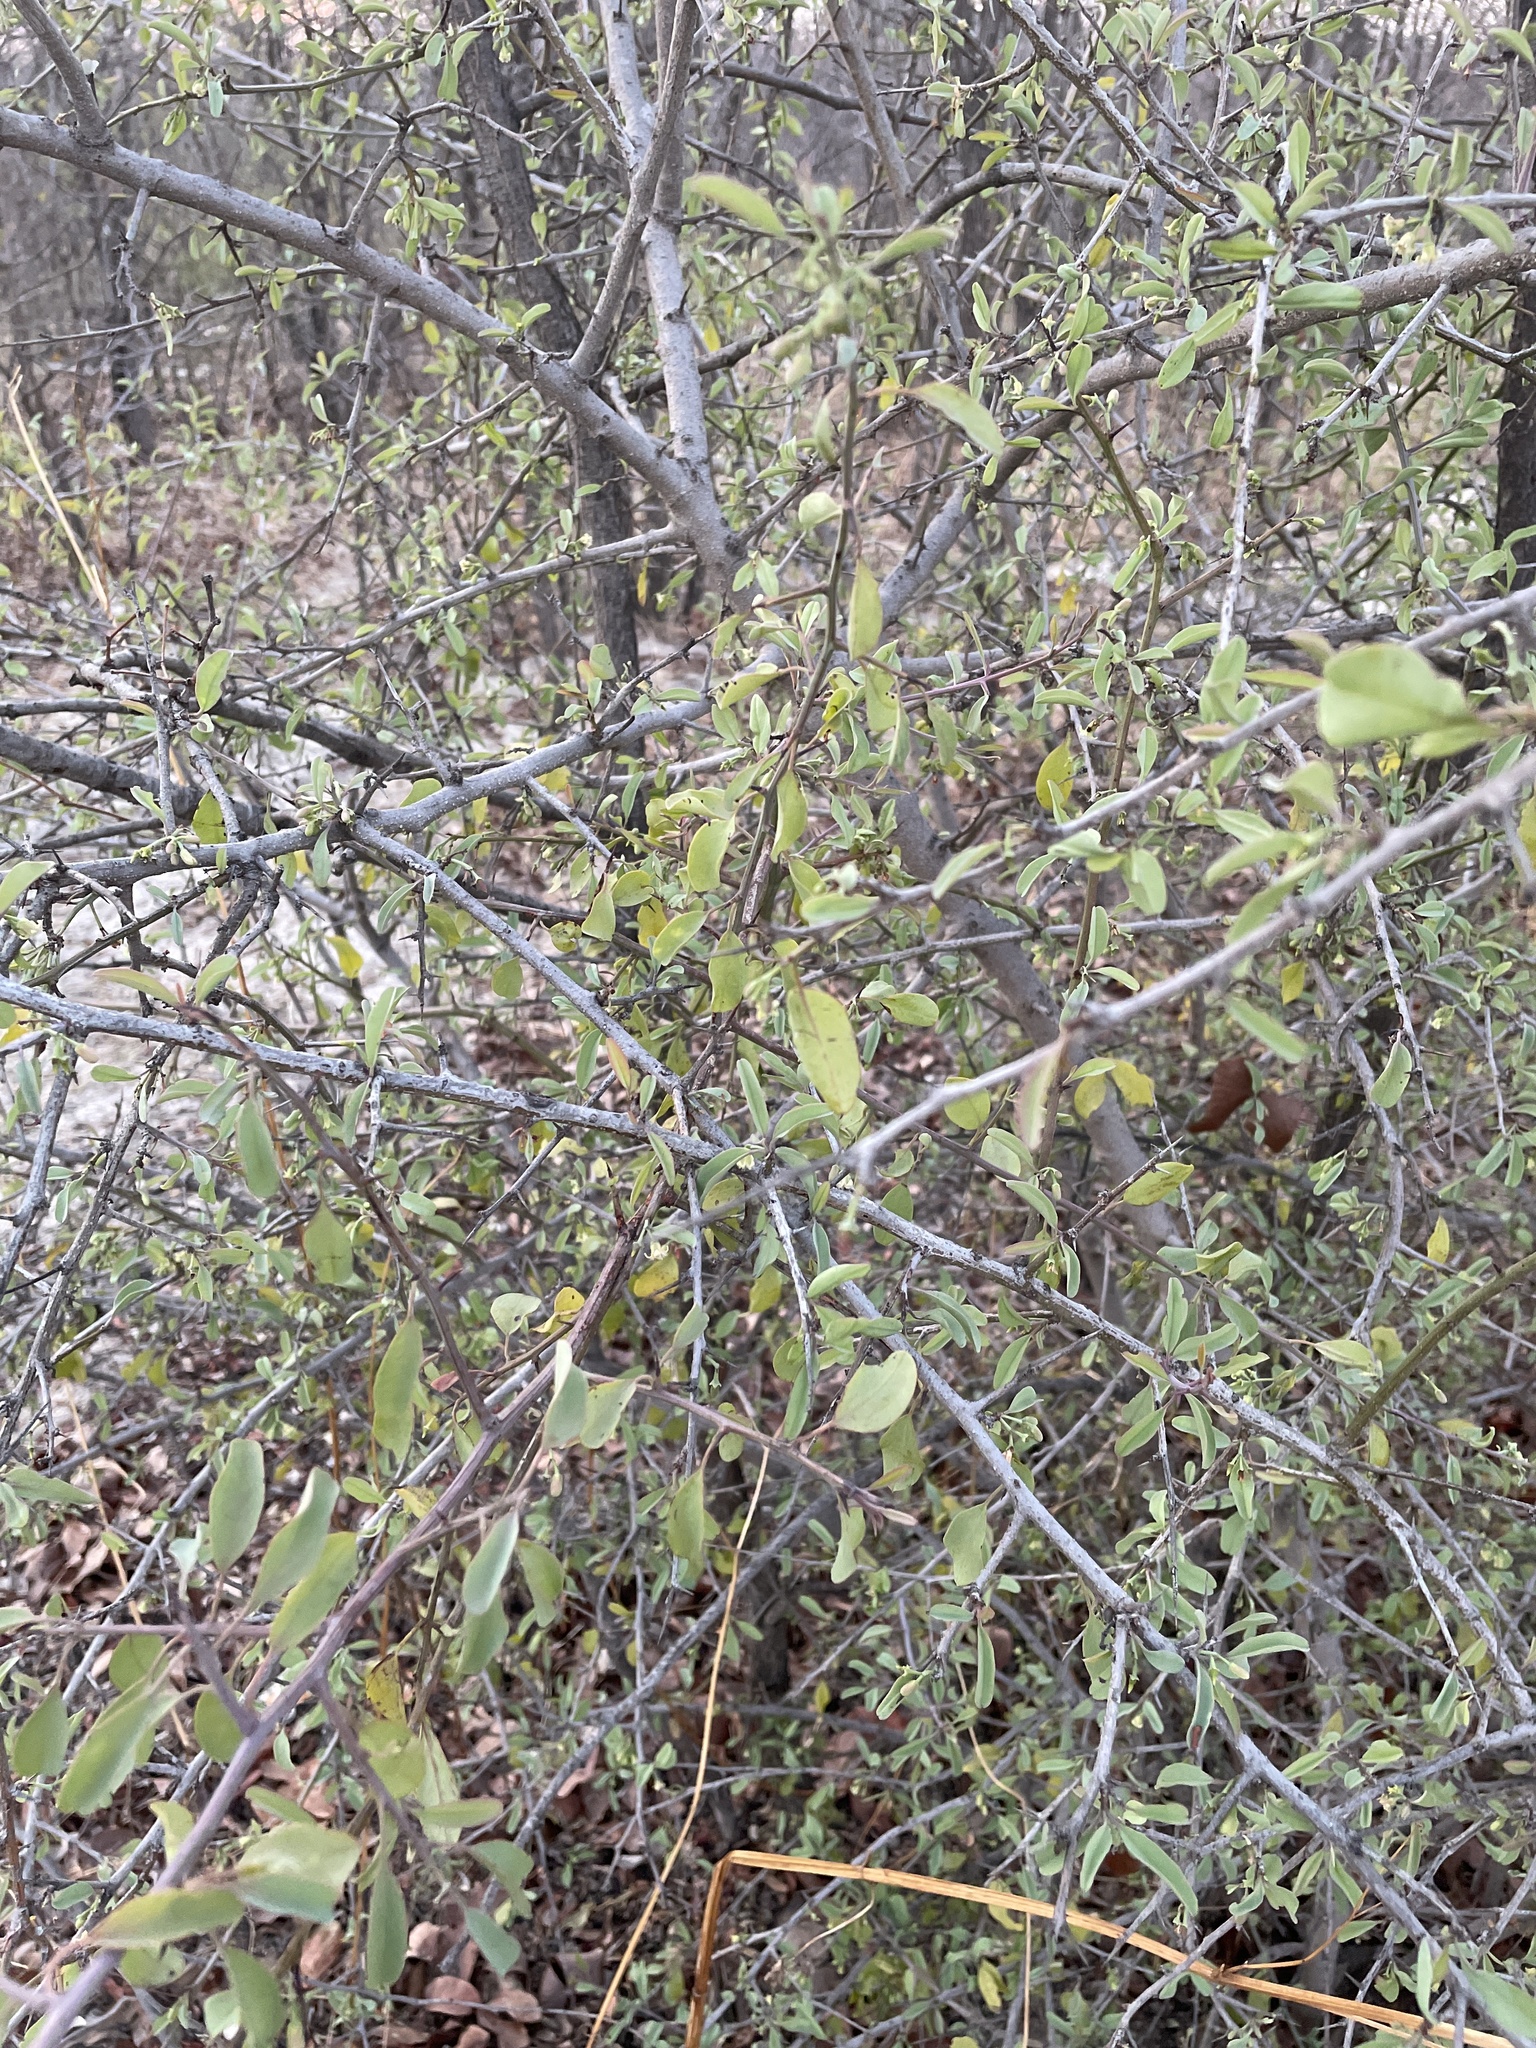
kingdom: Plantae
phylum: Tracheophyta
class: Magnoliopsida
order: Santalales
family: Ximeniaceae
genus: Ximenia
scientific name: Ximenia americana
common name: Tallowwood
